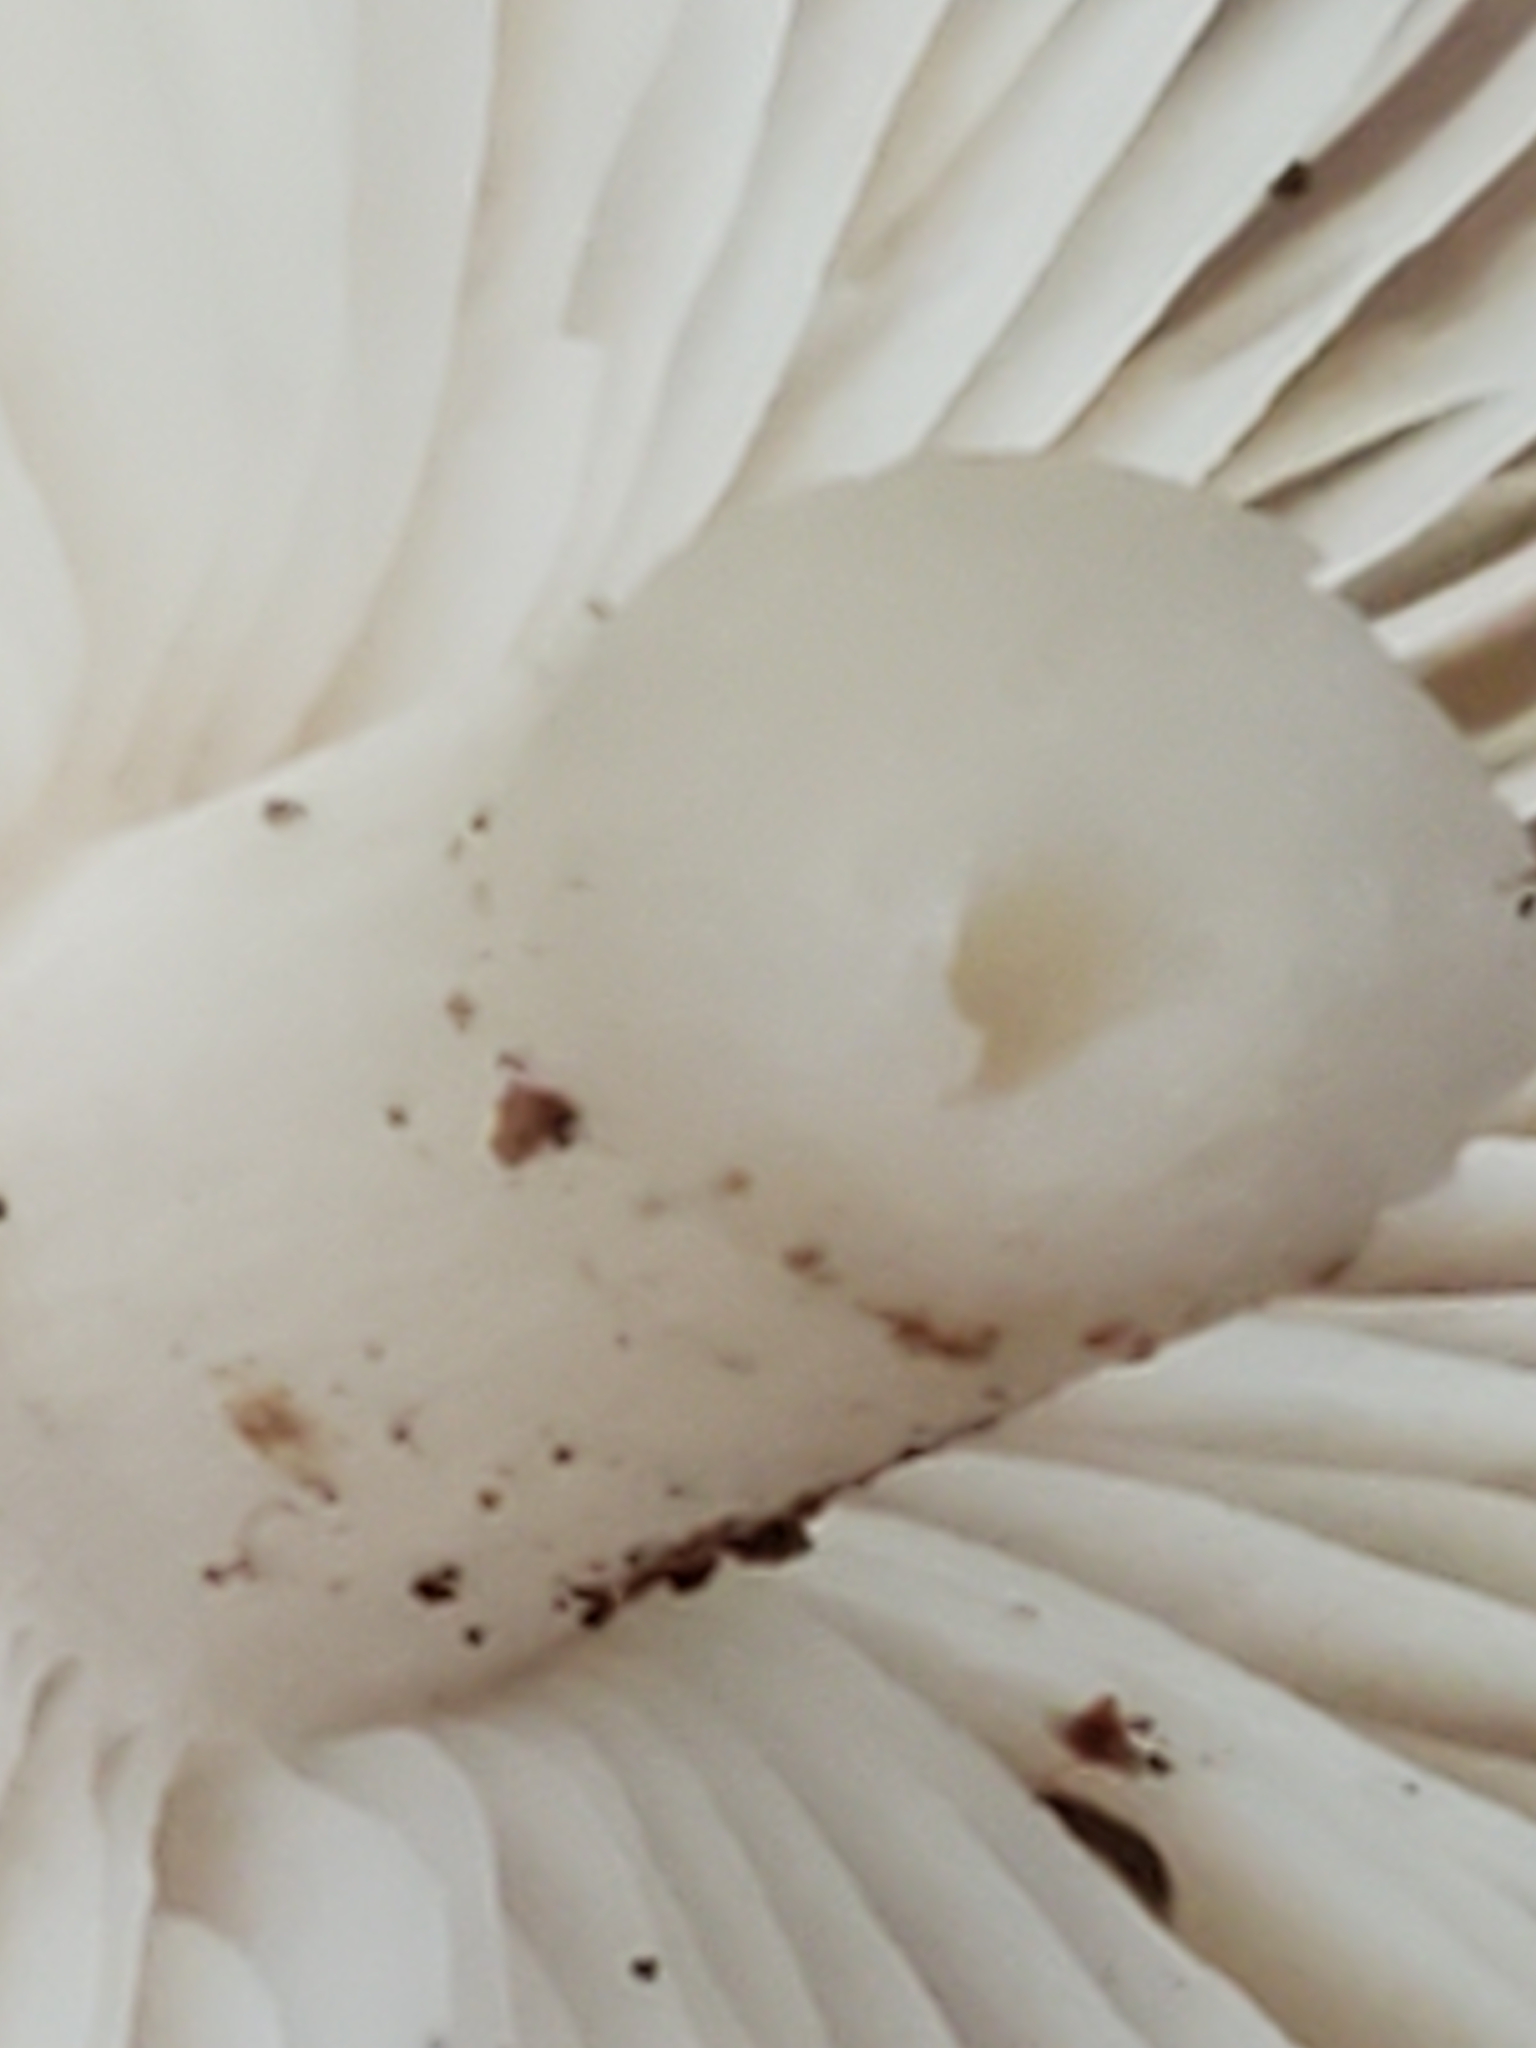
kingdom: Fungi
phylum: Basidiomycota
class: Agaricomycetes
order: Agaricales
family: Tricholomataceae
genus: Megacollybia
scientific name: Megacollybia rodmanii
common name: Eastern american platterful mushroom
